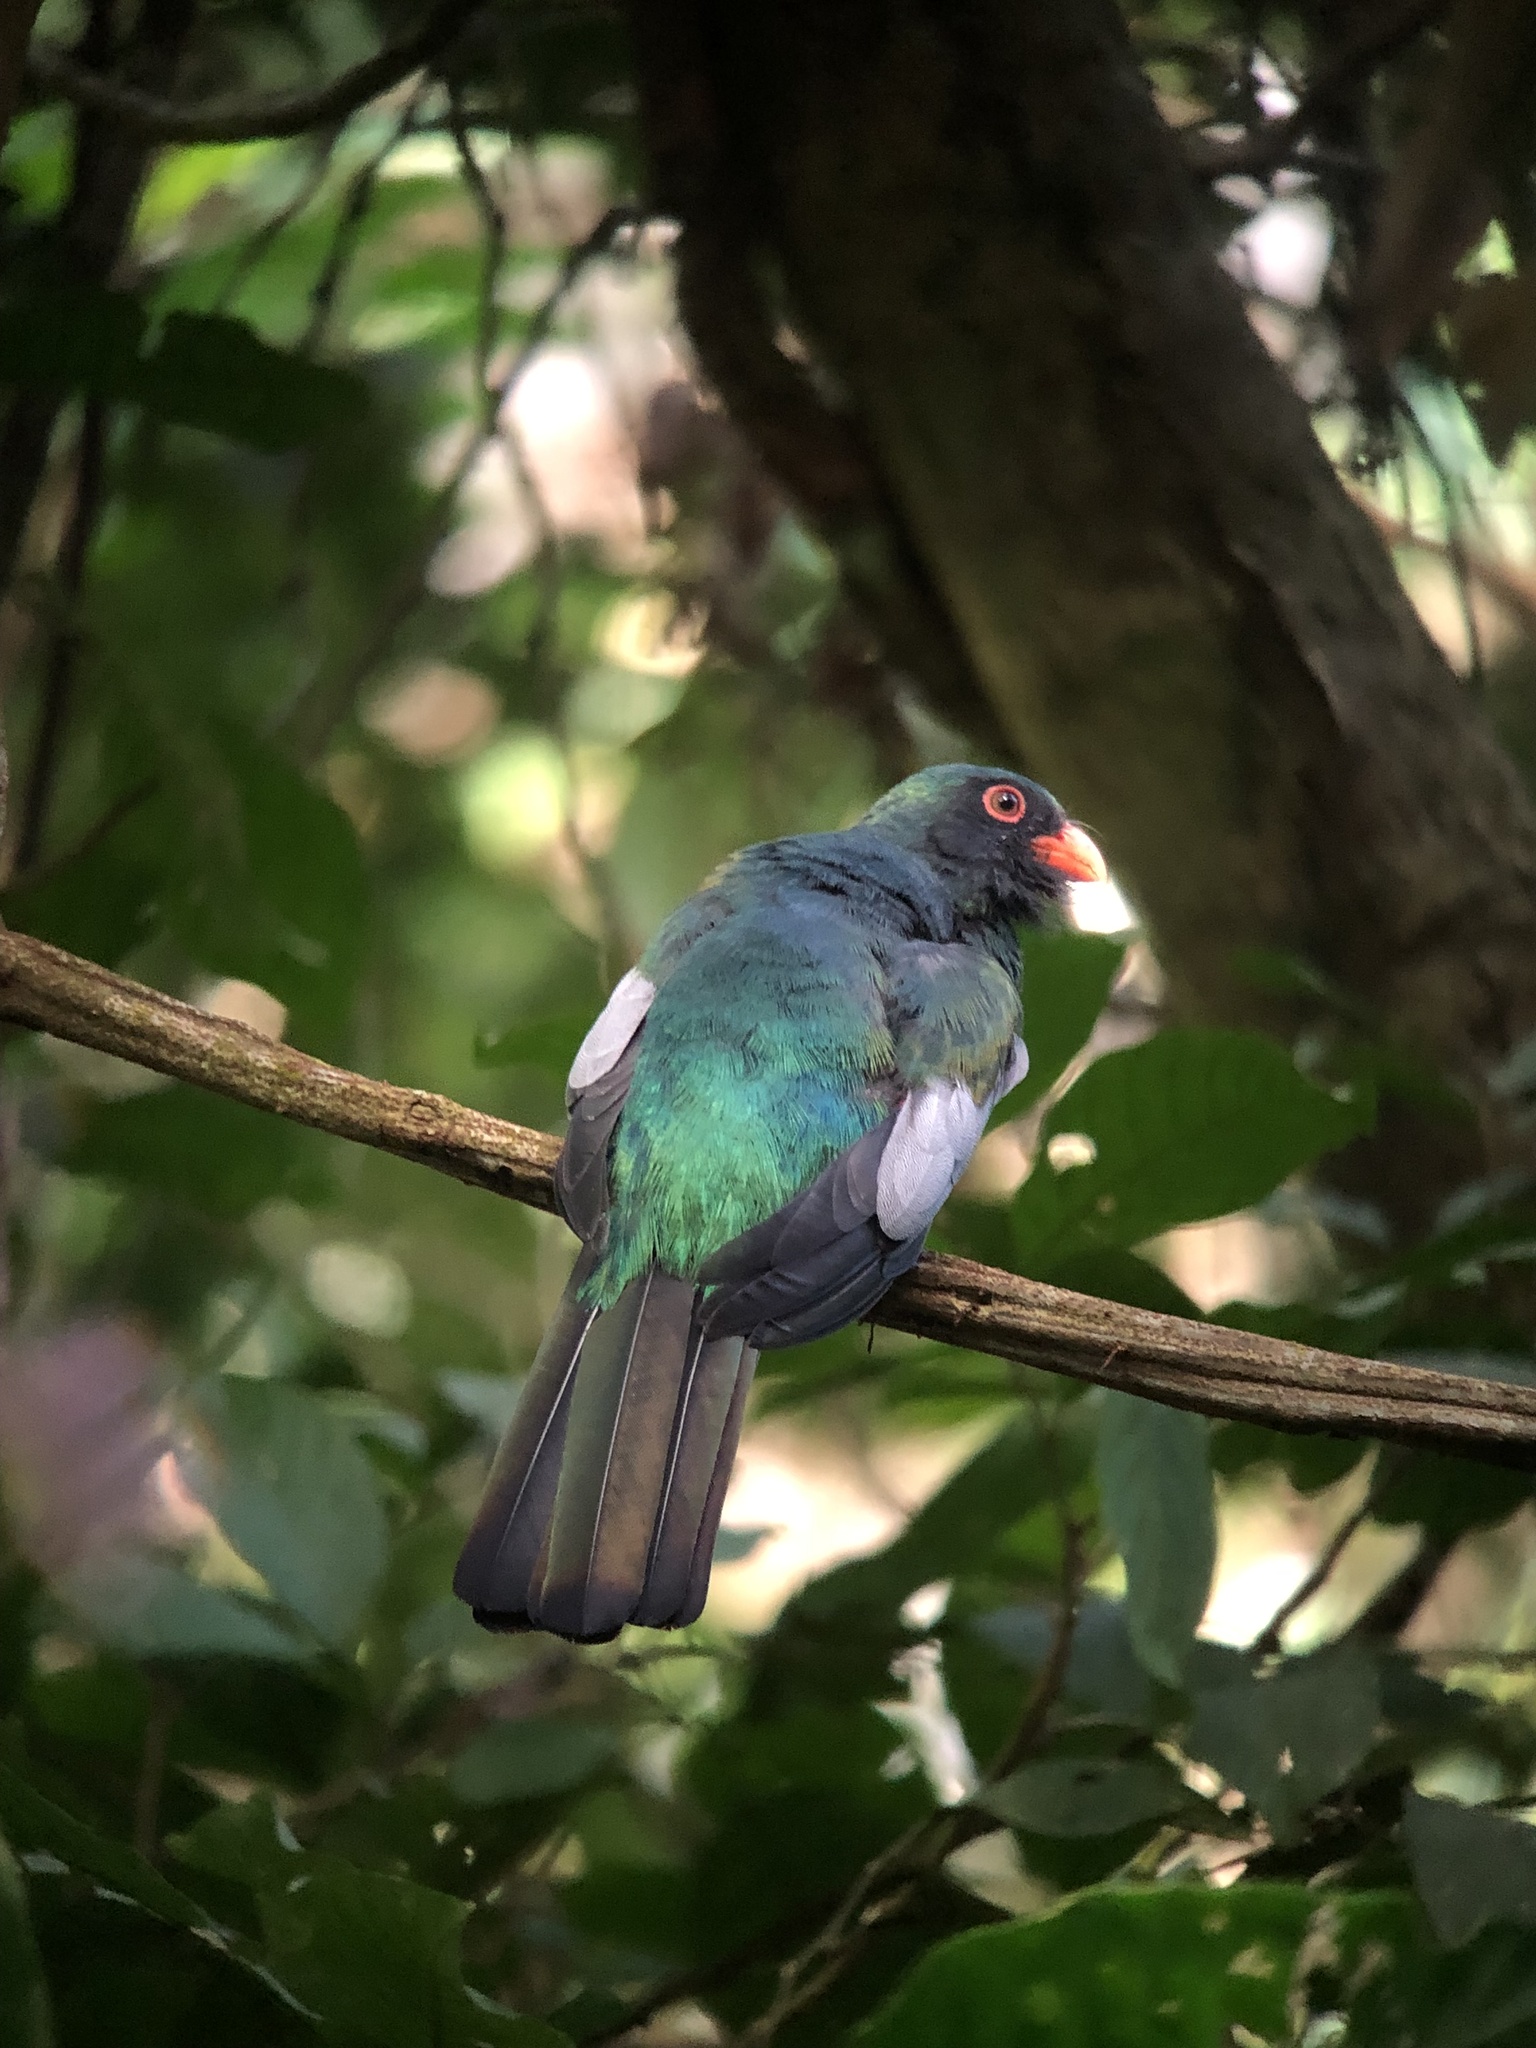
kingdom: Animalia
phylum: Chordata
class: Aves
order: Trogoniformes
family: Trogonidae
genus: Trogon
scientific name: Trogon massena
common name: Slaty-tailed trogon
